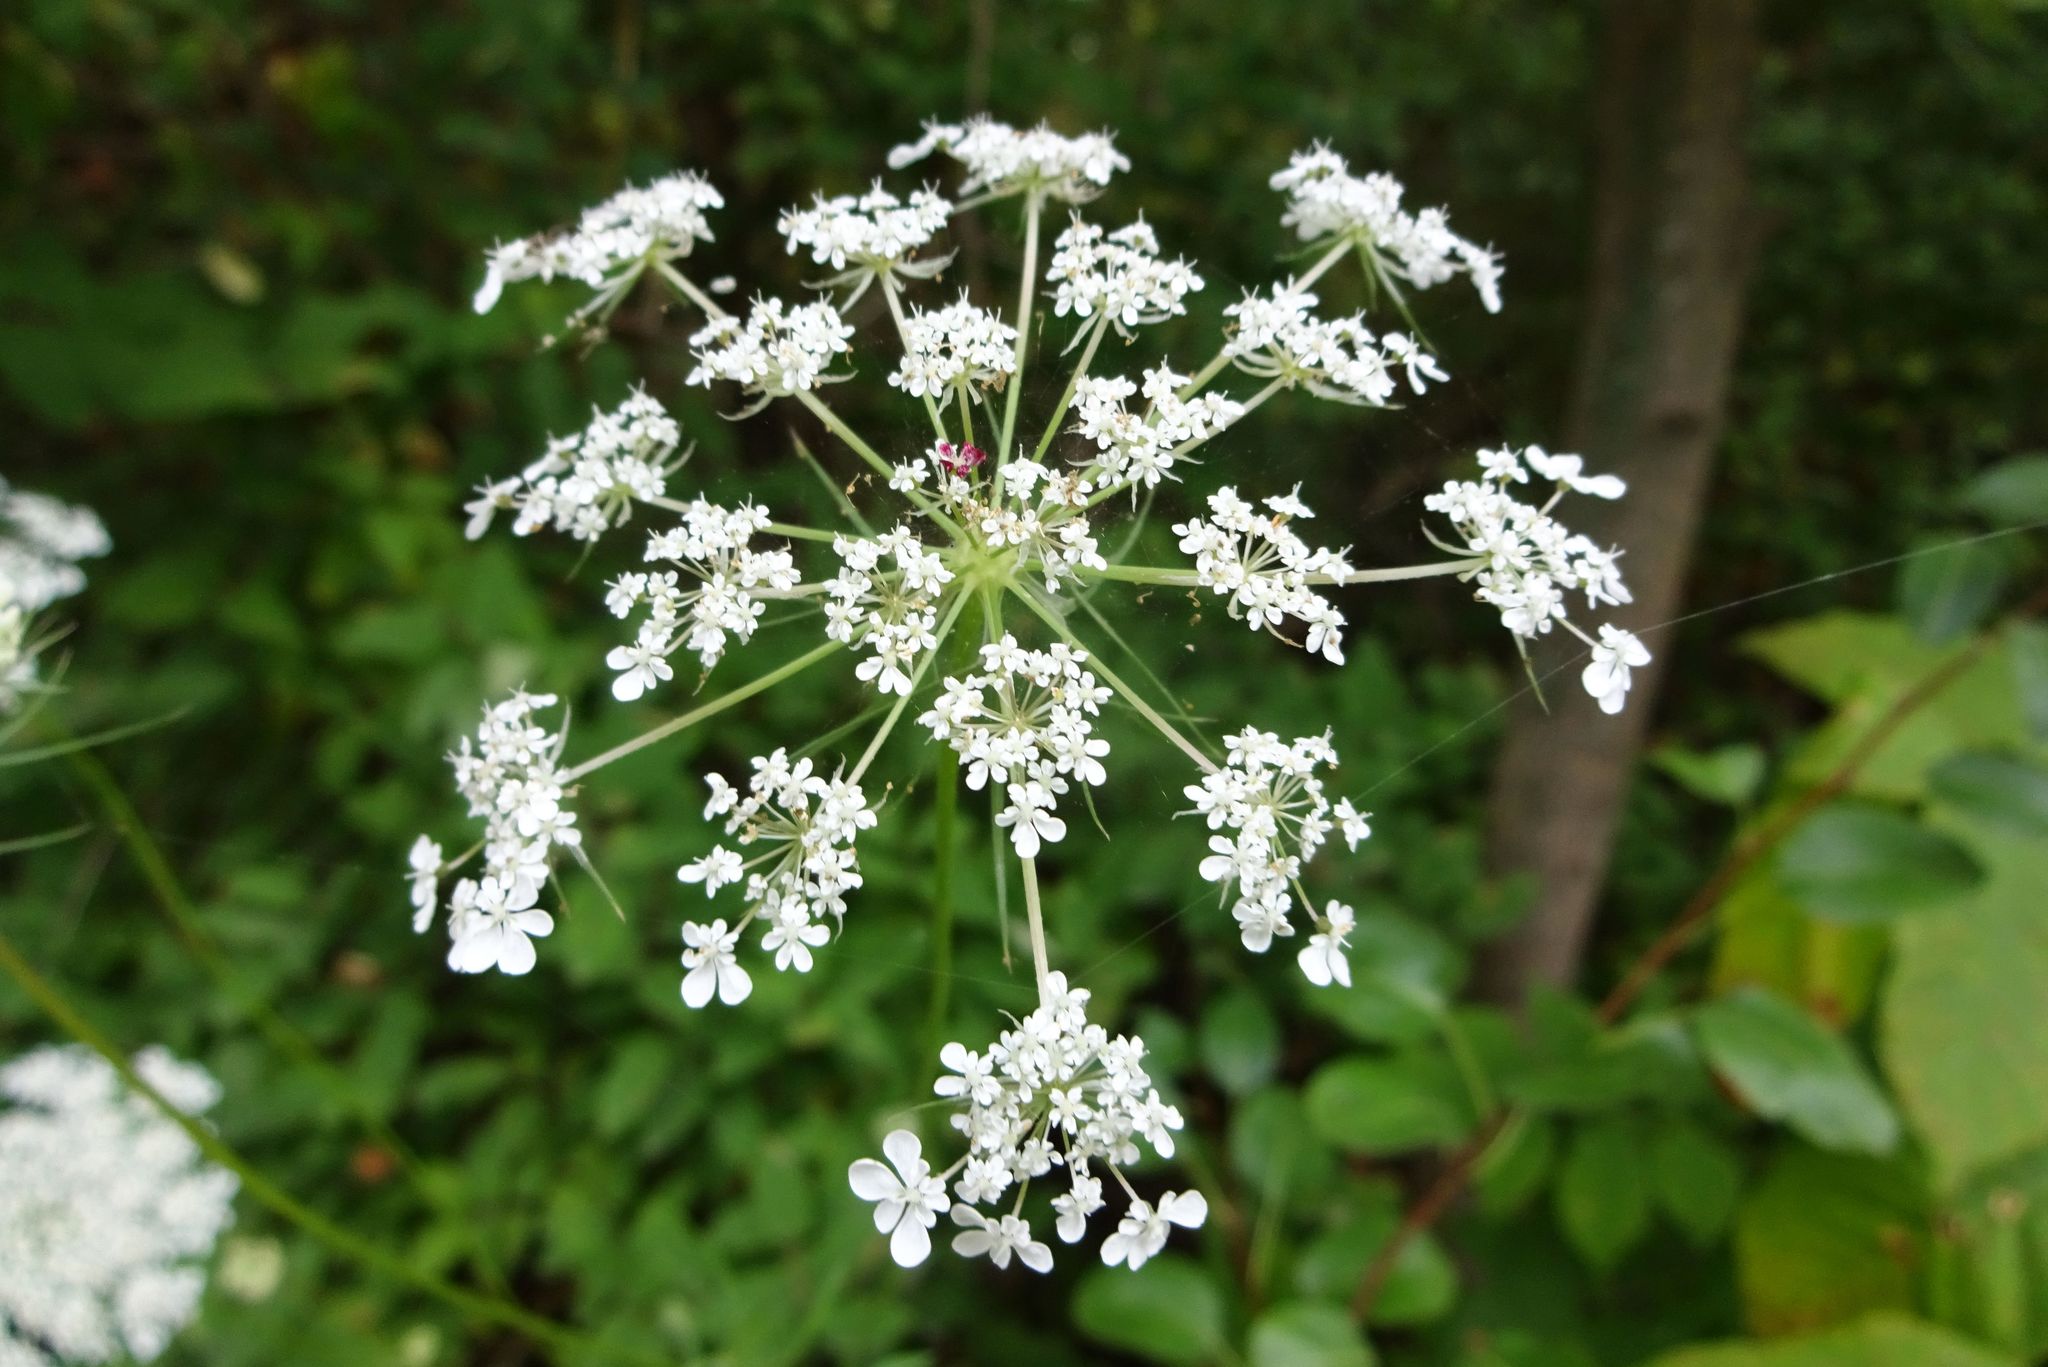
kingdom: Plantae
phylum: Tracheophyta
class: Magnoliopsida
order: Apiales
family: Apiaceae
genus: Daucus
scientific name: Daucus carota
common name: Wild carrot
